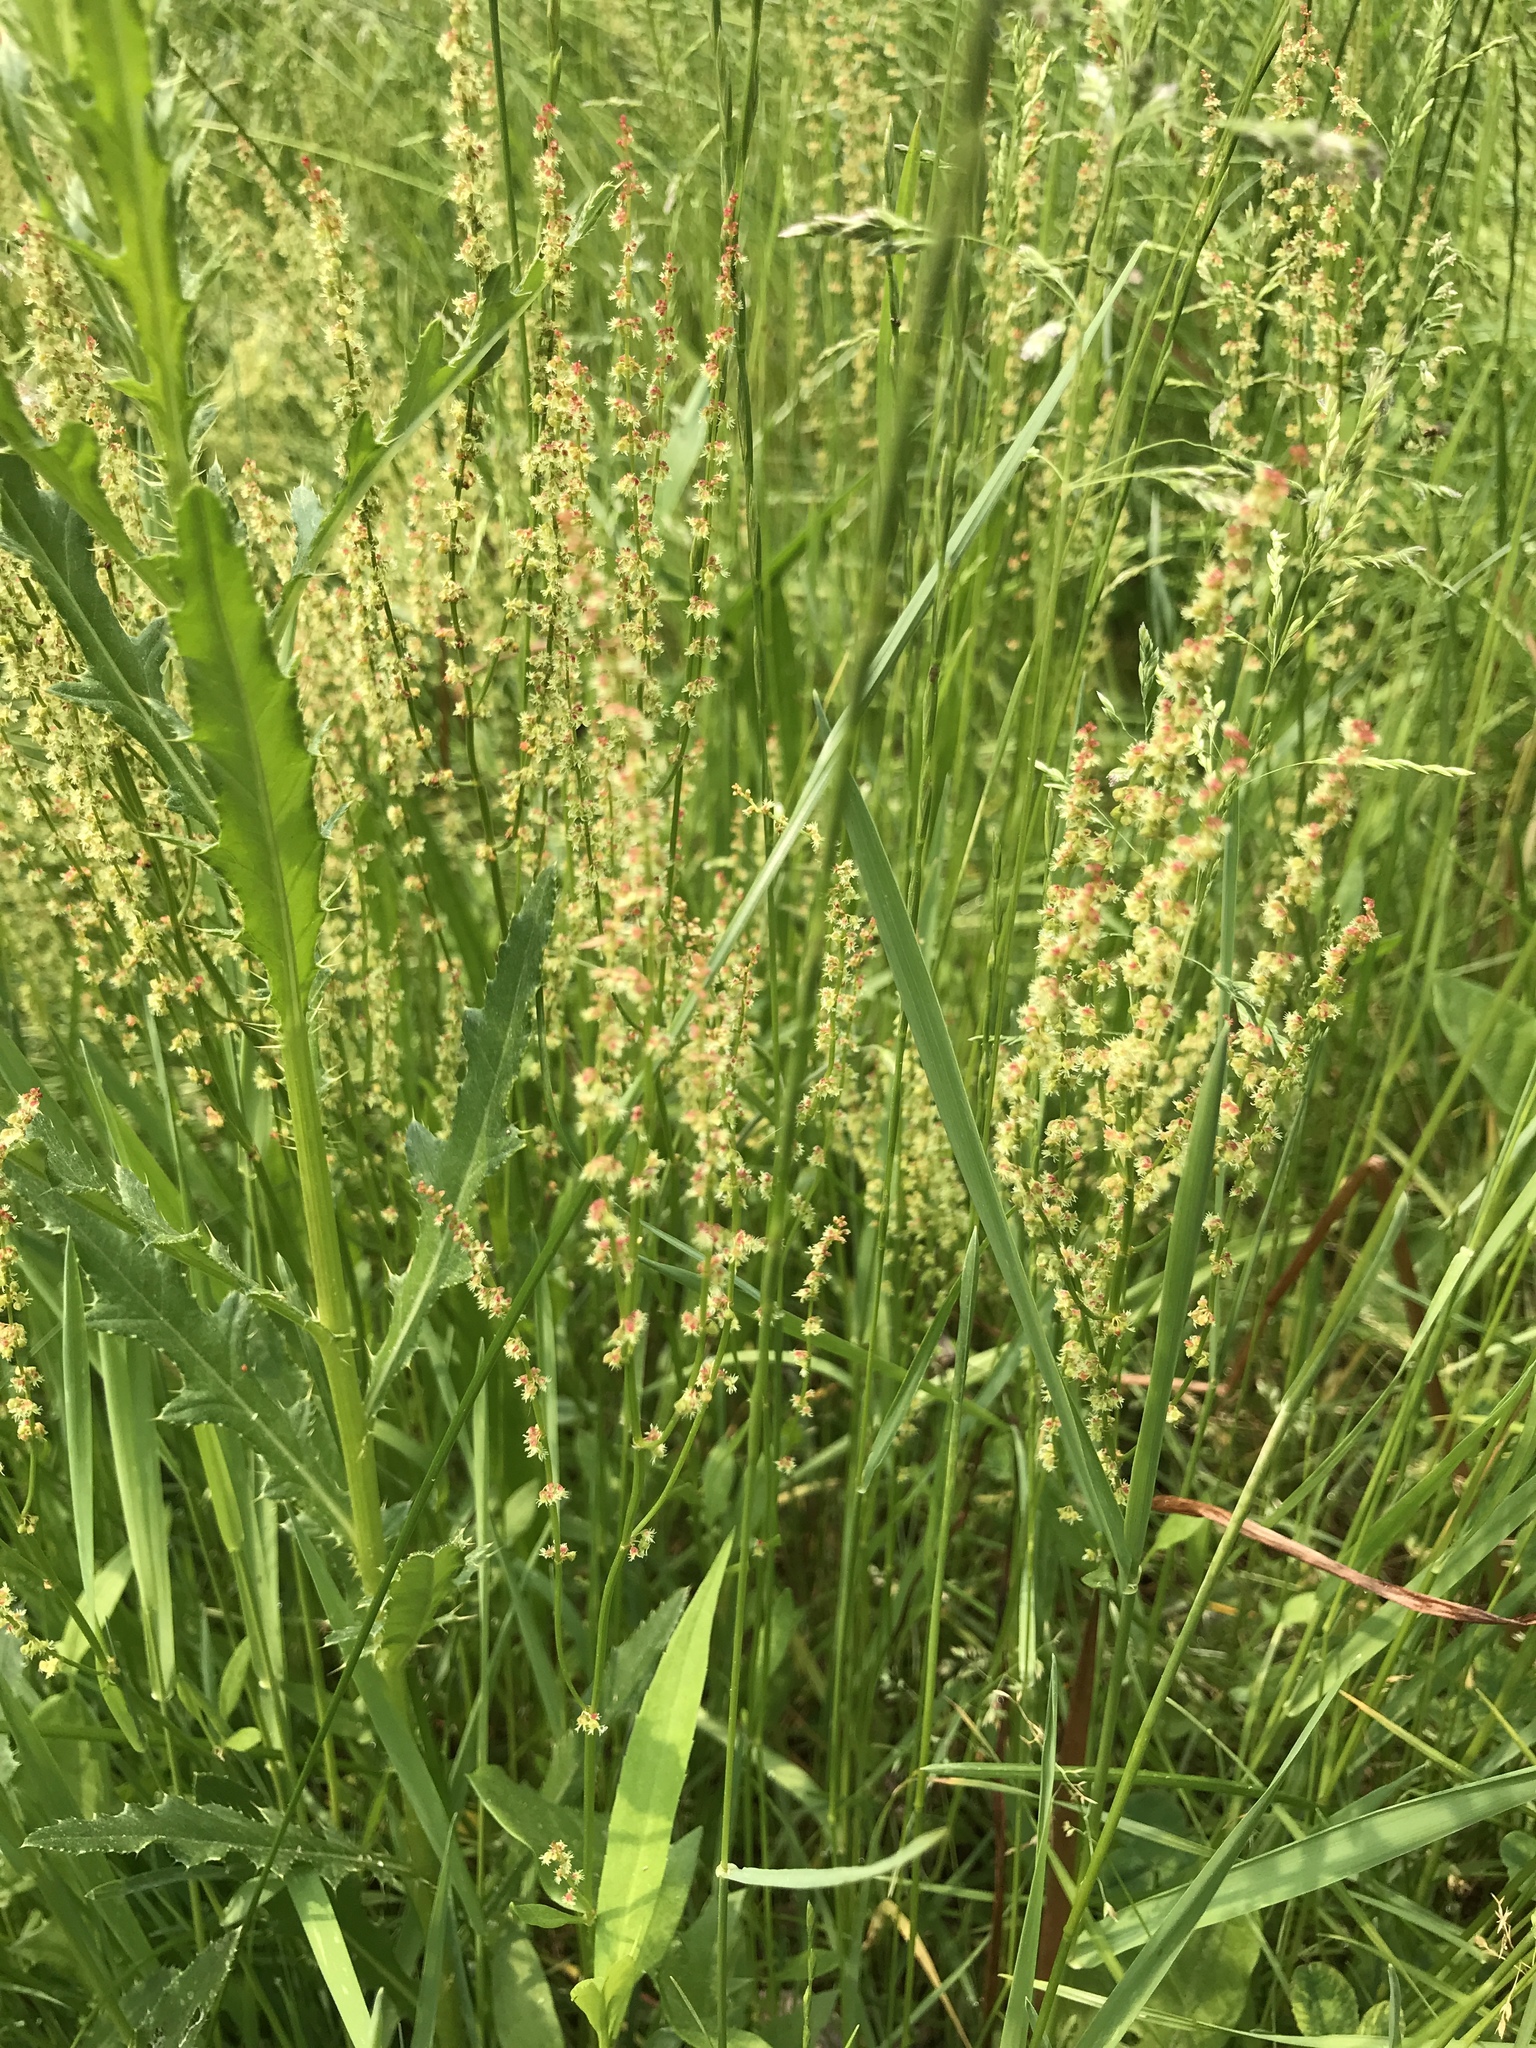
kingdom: Plantae
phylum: Tracheophyta
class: Magnoliopsida
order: Caryophyllales
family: Polygonaceae
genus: Rumex
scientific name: Rumex acetosella
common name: Common sheep sorrel
